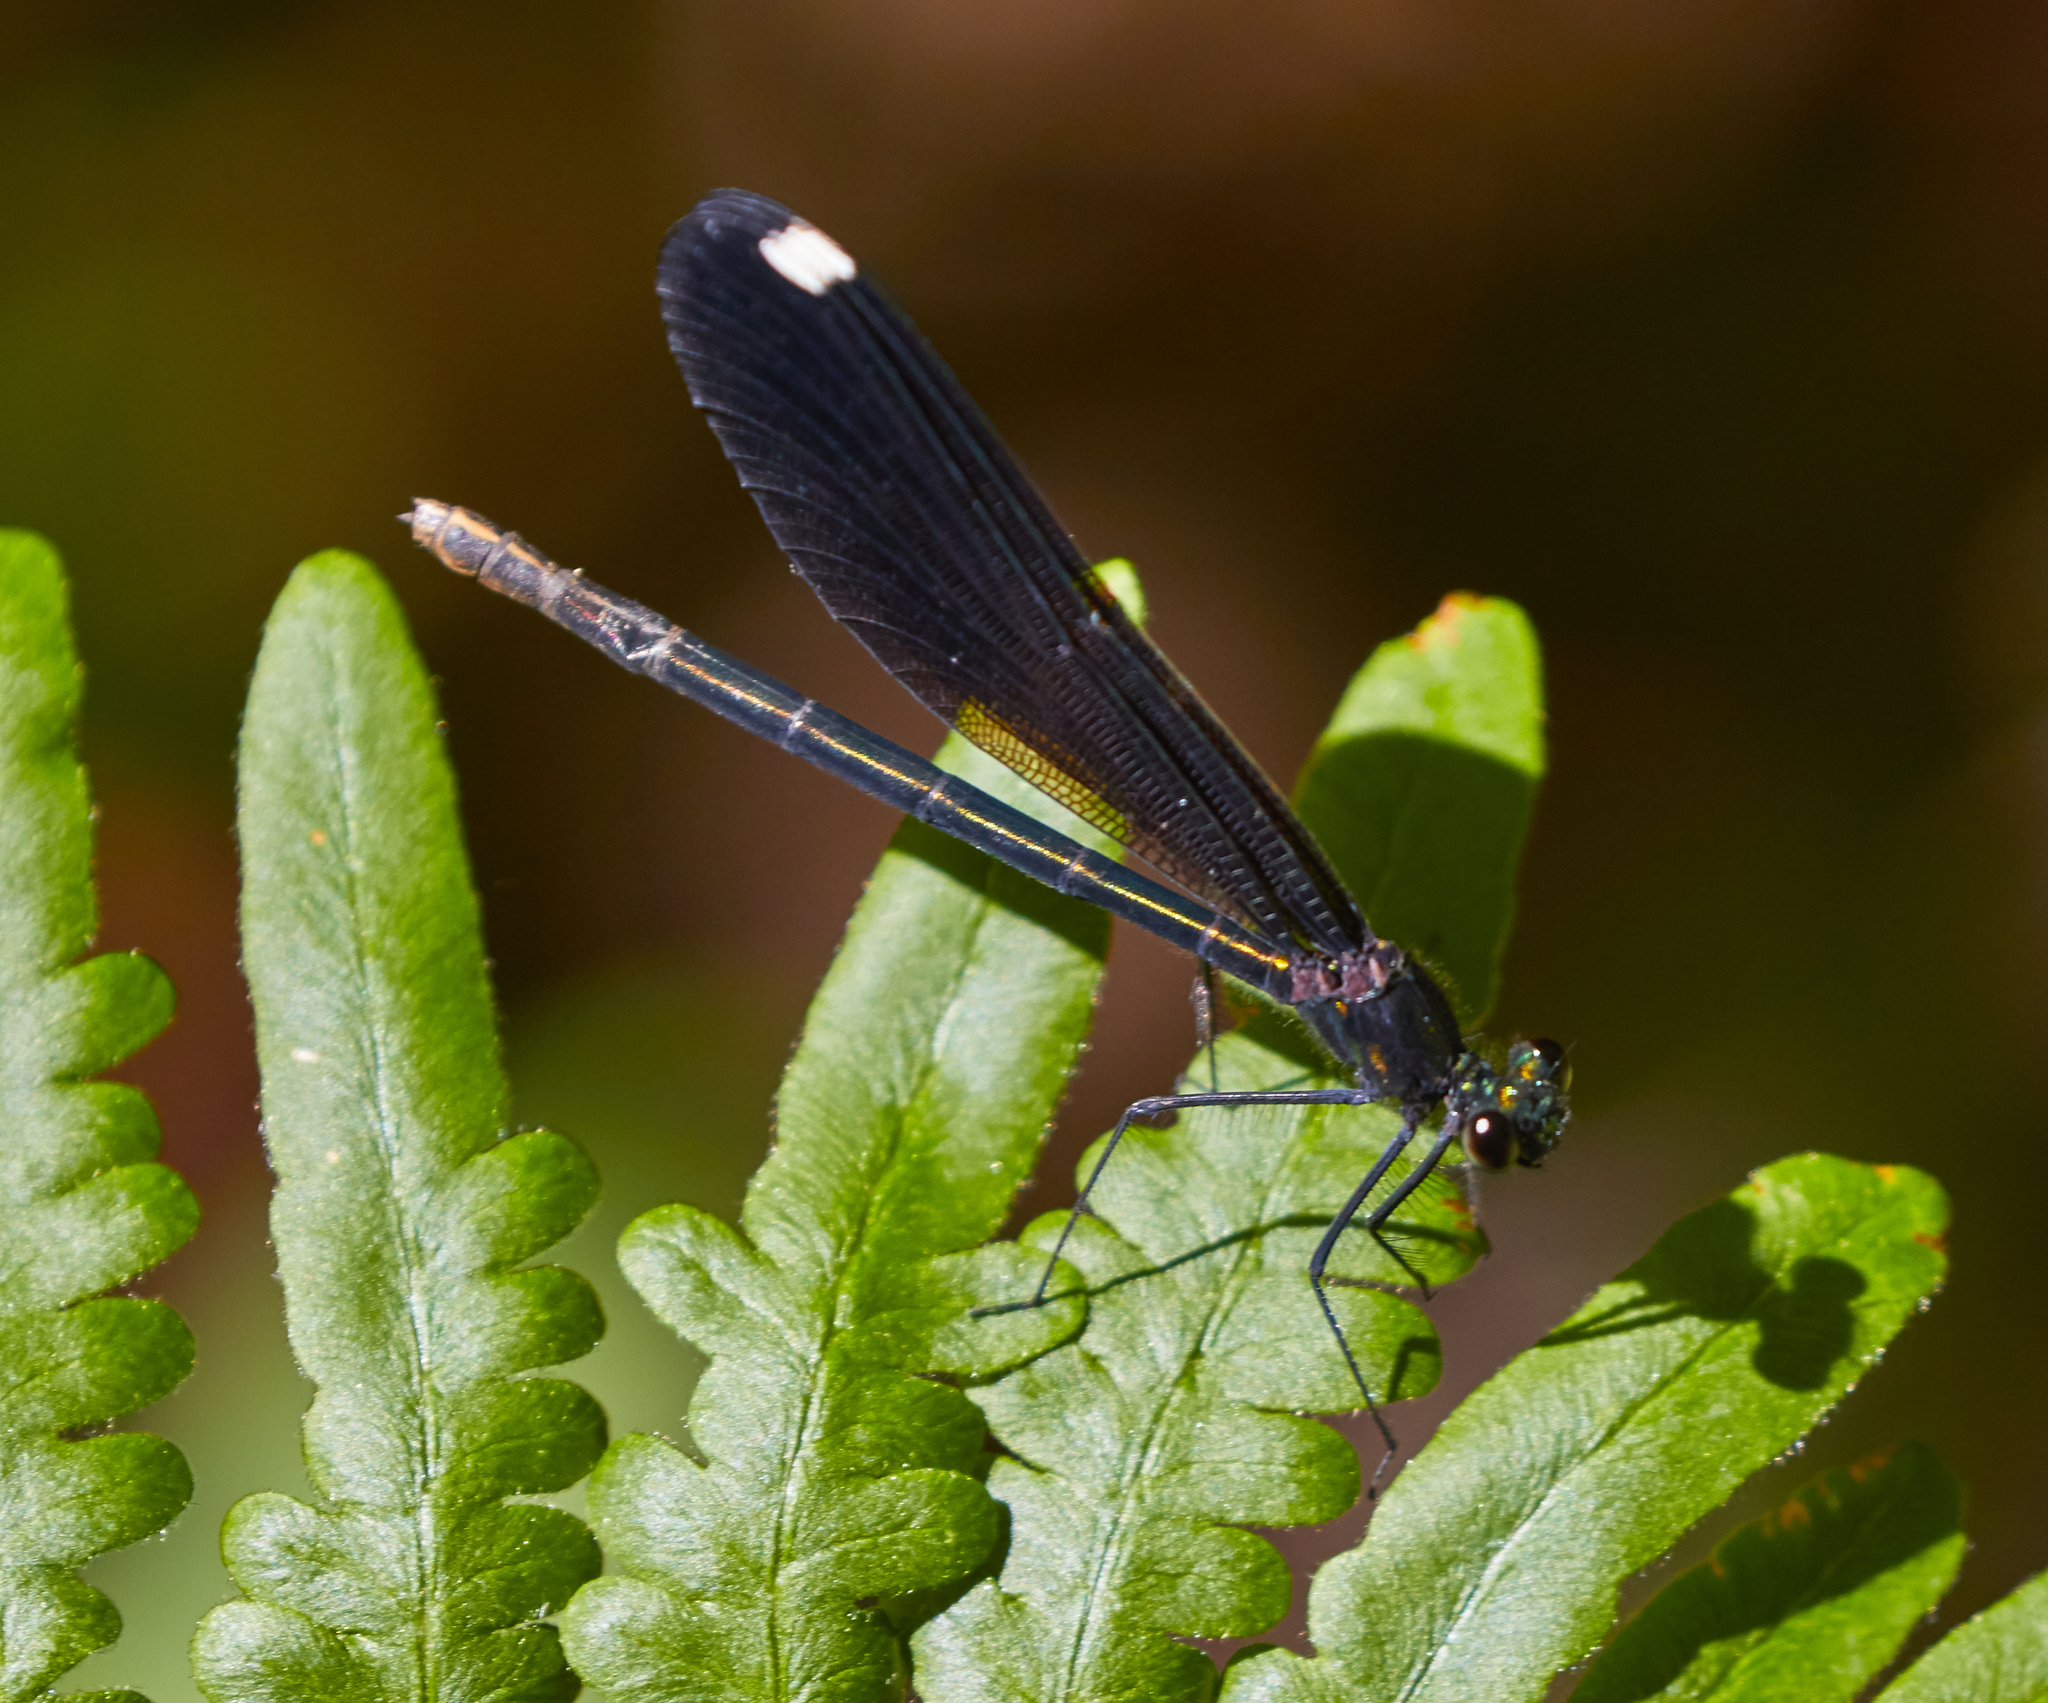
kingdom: Animalia
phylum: Arthropoda
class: Insecta
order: Odonata
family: Calopterygidae
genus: Calopteryx
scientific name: Calopteryx maculata
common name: Ebony jewelwing
